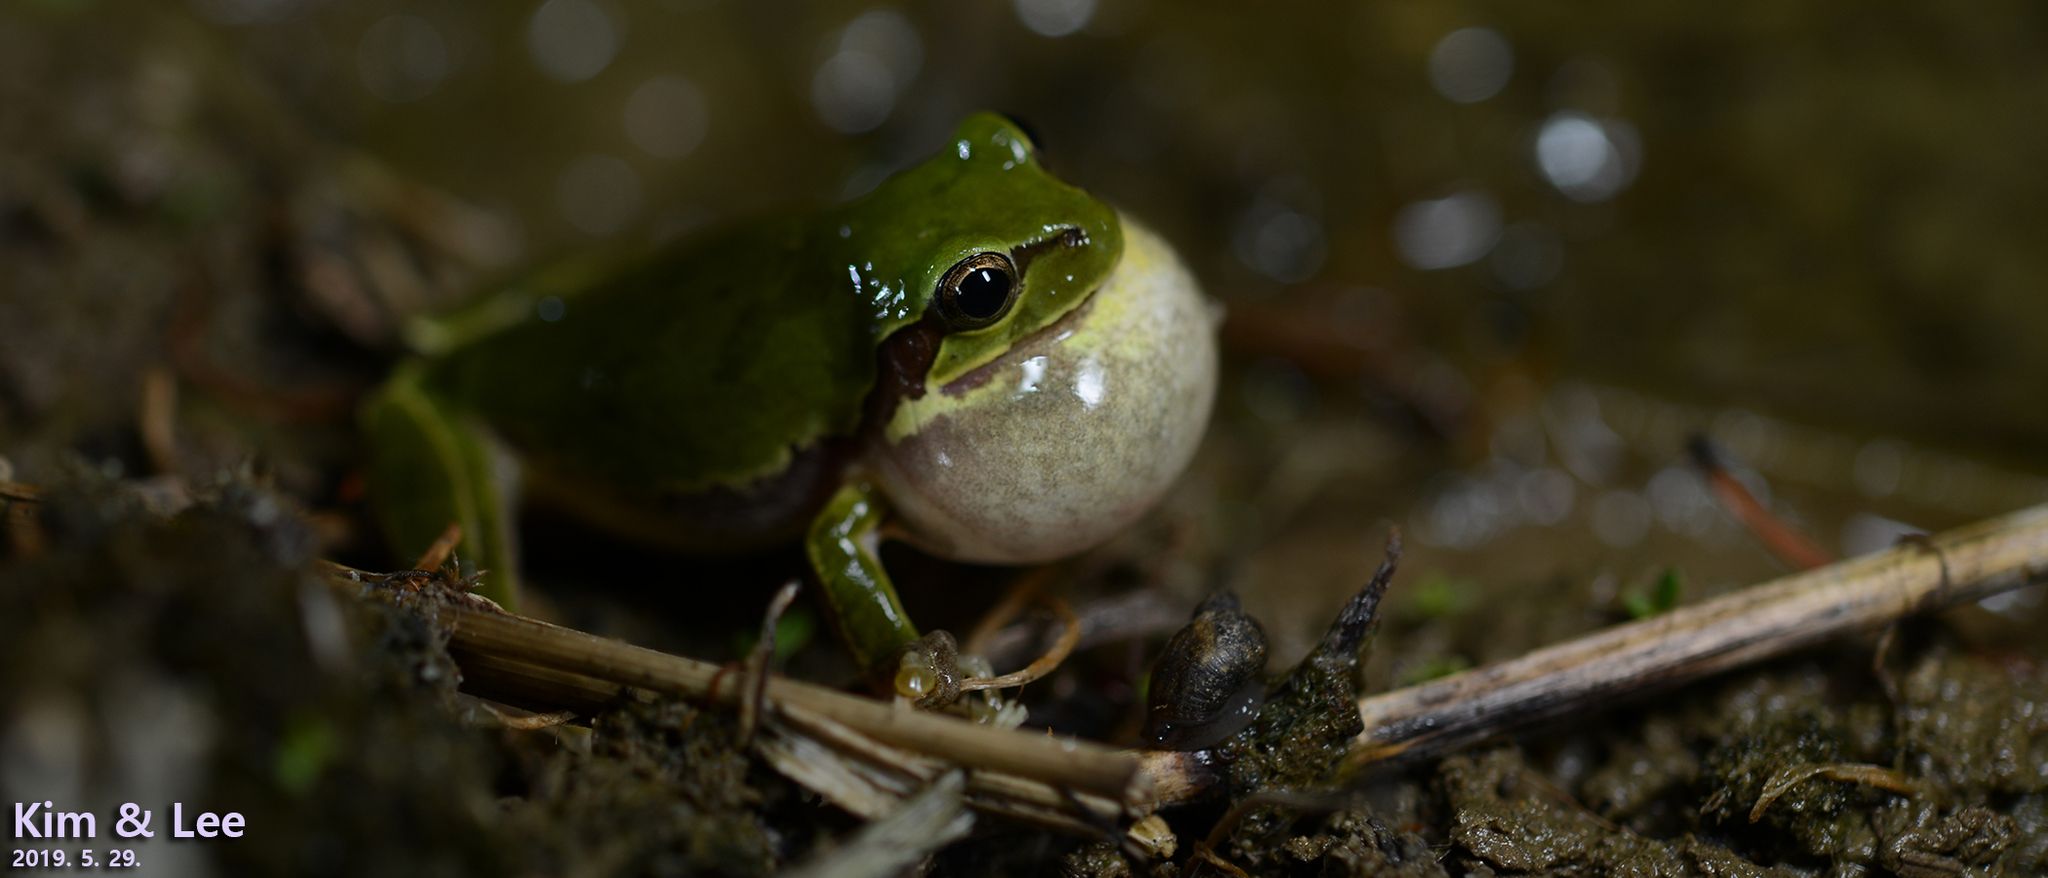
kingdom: Animalia
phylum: Chordata
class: Amphibia
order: Anura
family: Hylidae
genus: Dryophytes
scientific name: Dryophytes japonicus
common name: Japanese treefrog
